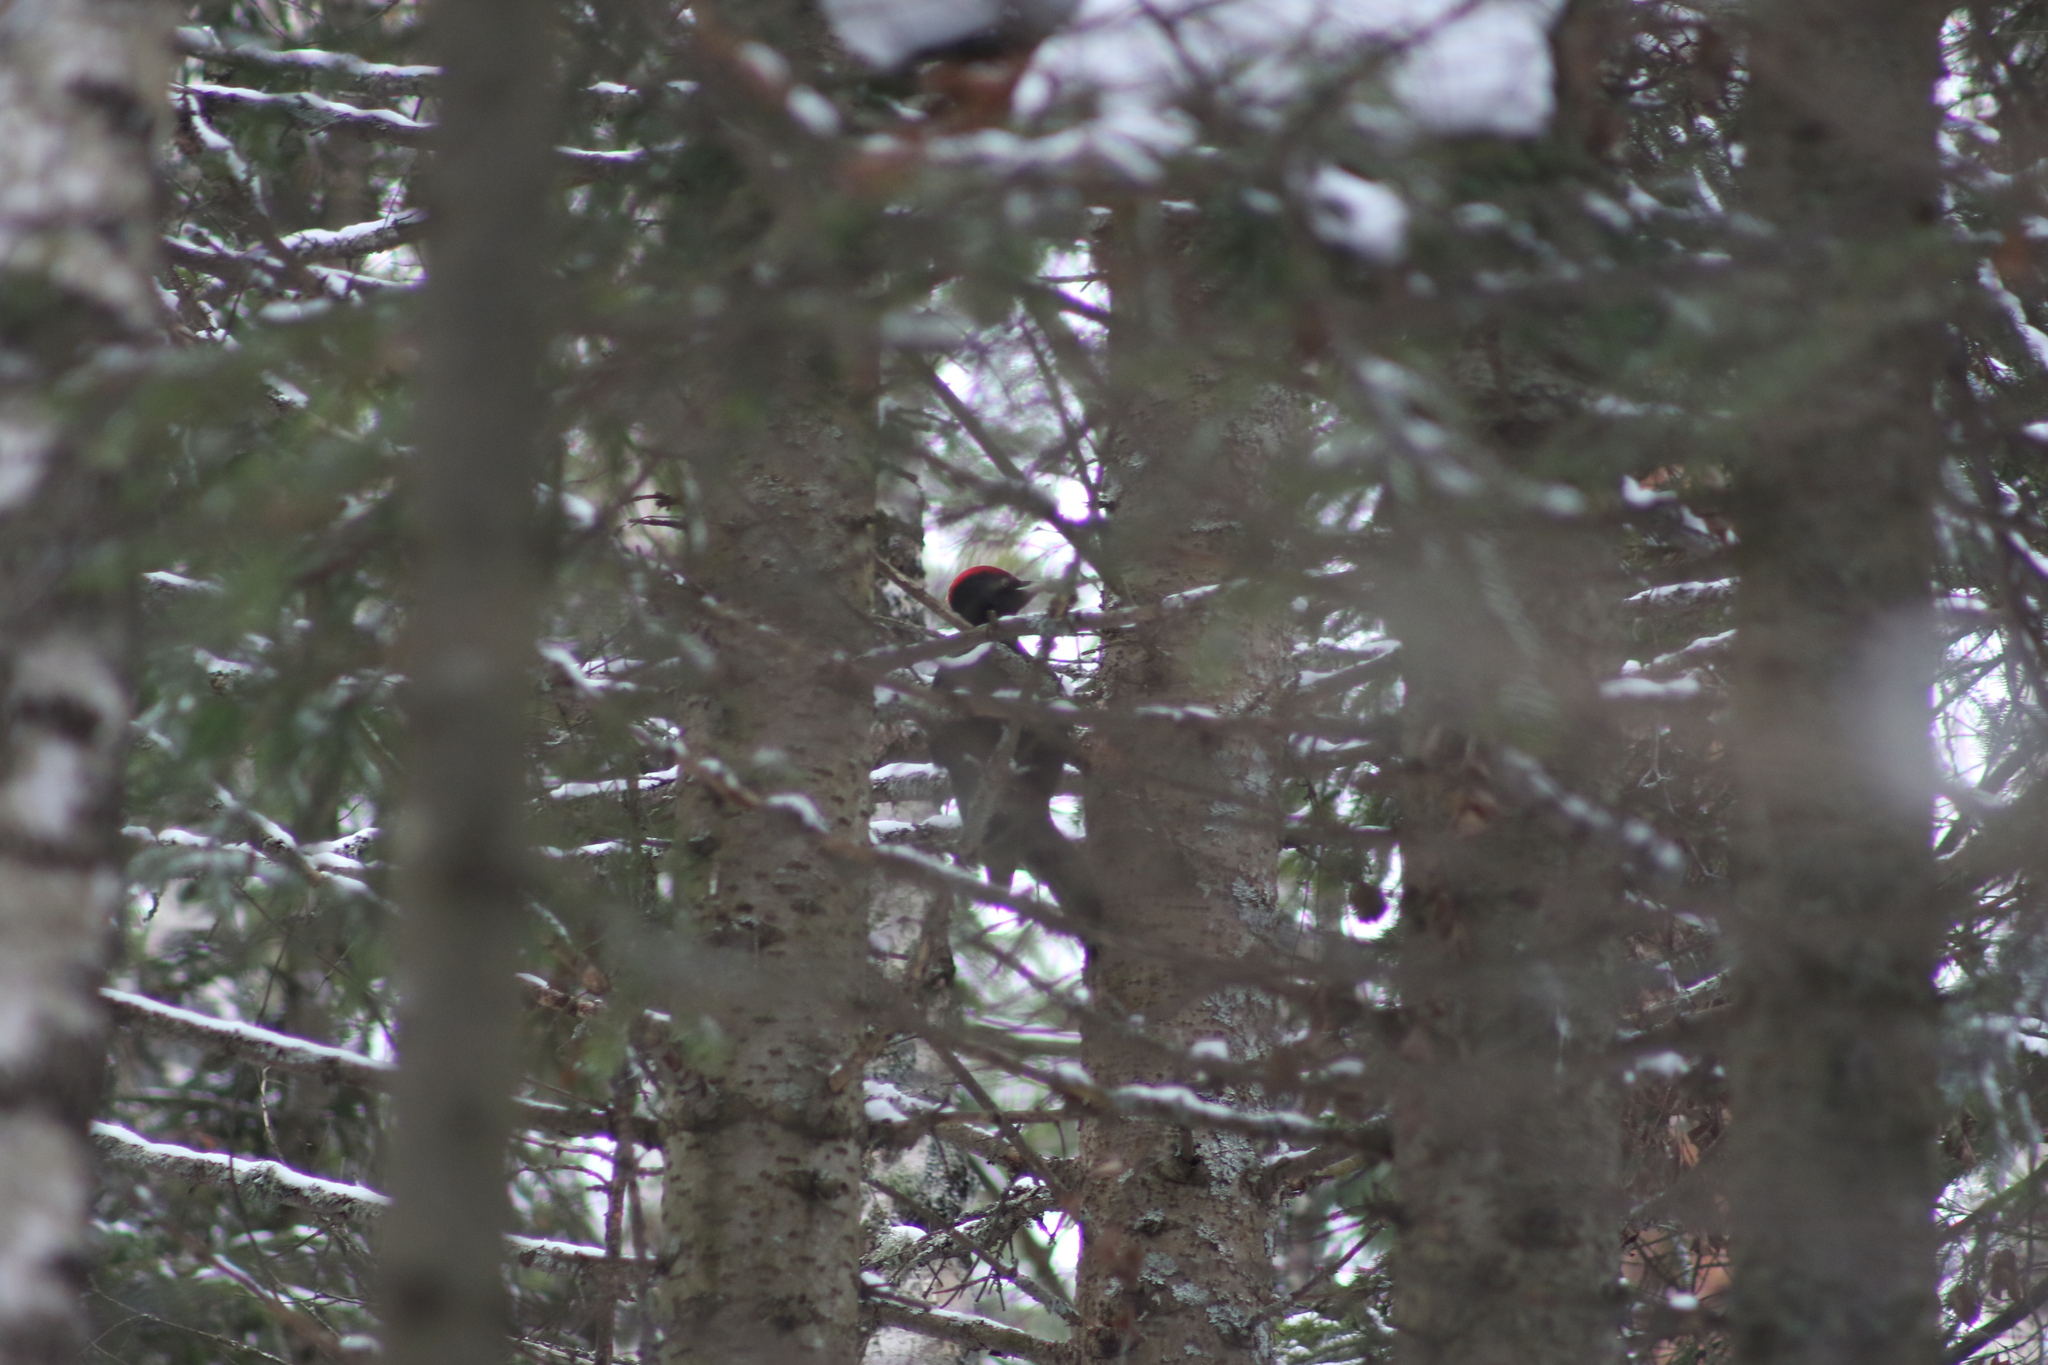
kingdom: Animalia
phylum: Chordata
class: Aves
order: Piciformes
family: Picidae
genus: Dryocopus
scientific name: Dryocopus martius
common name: Black woodpecker
